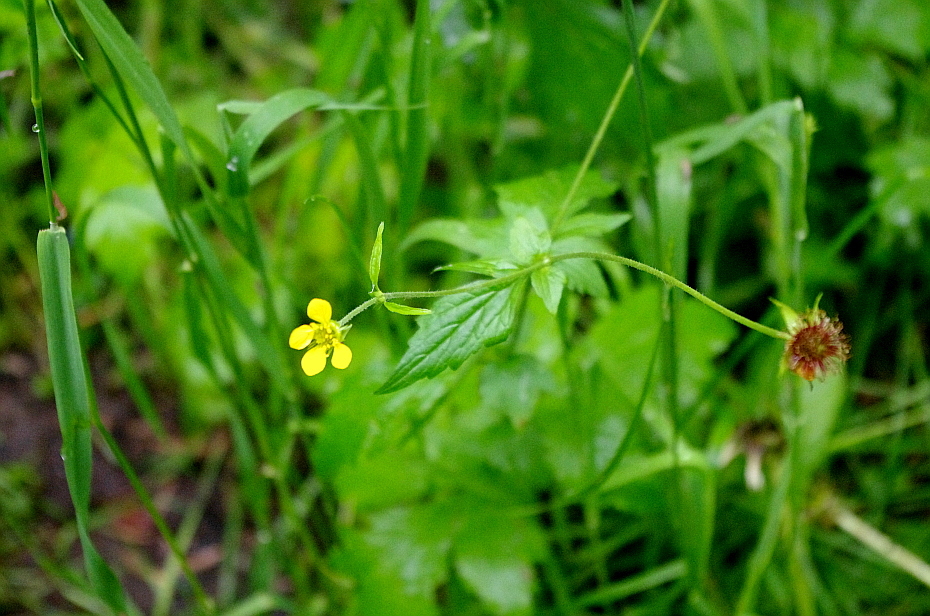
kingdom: Plantae
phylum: Tracheophyta
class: Magnoliopsida
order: Rosales
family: Rosaceae
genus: Geum
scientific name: Geum urbanum
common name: Wood avens
